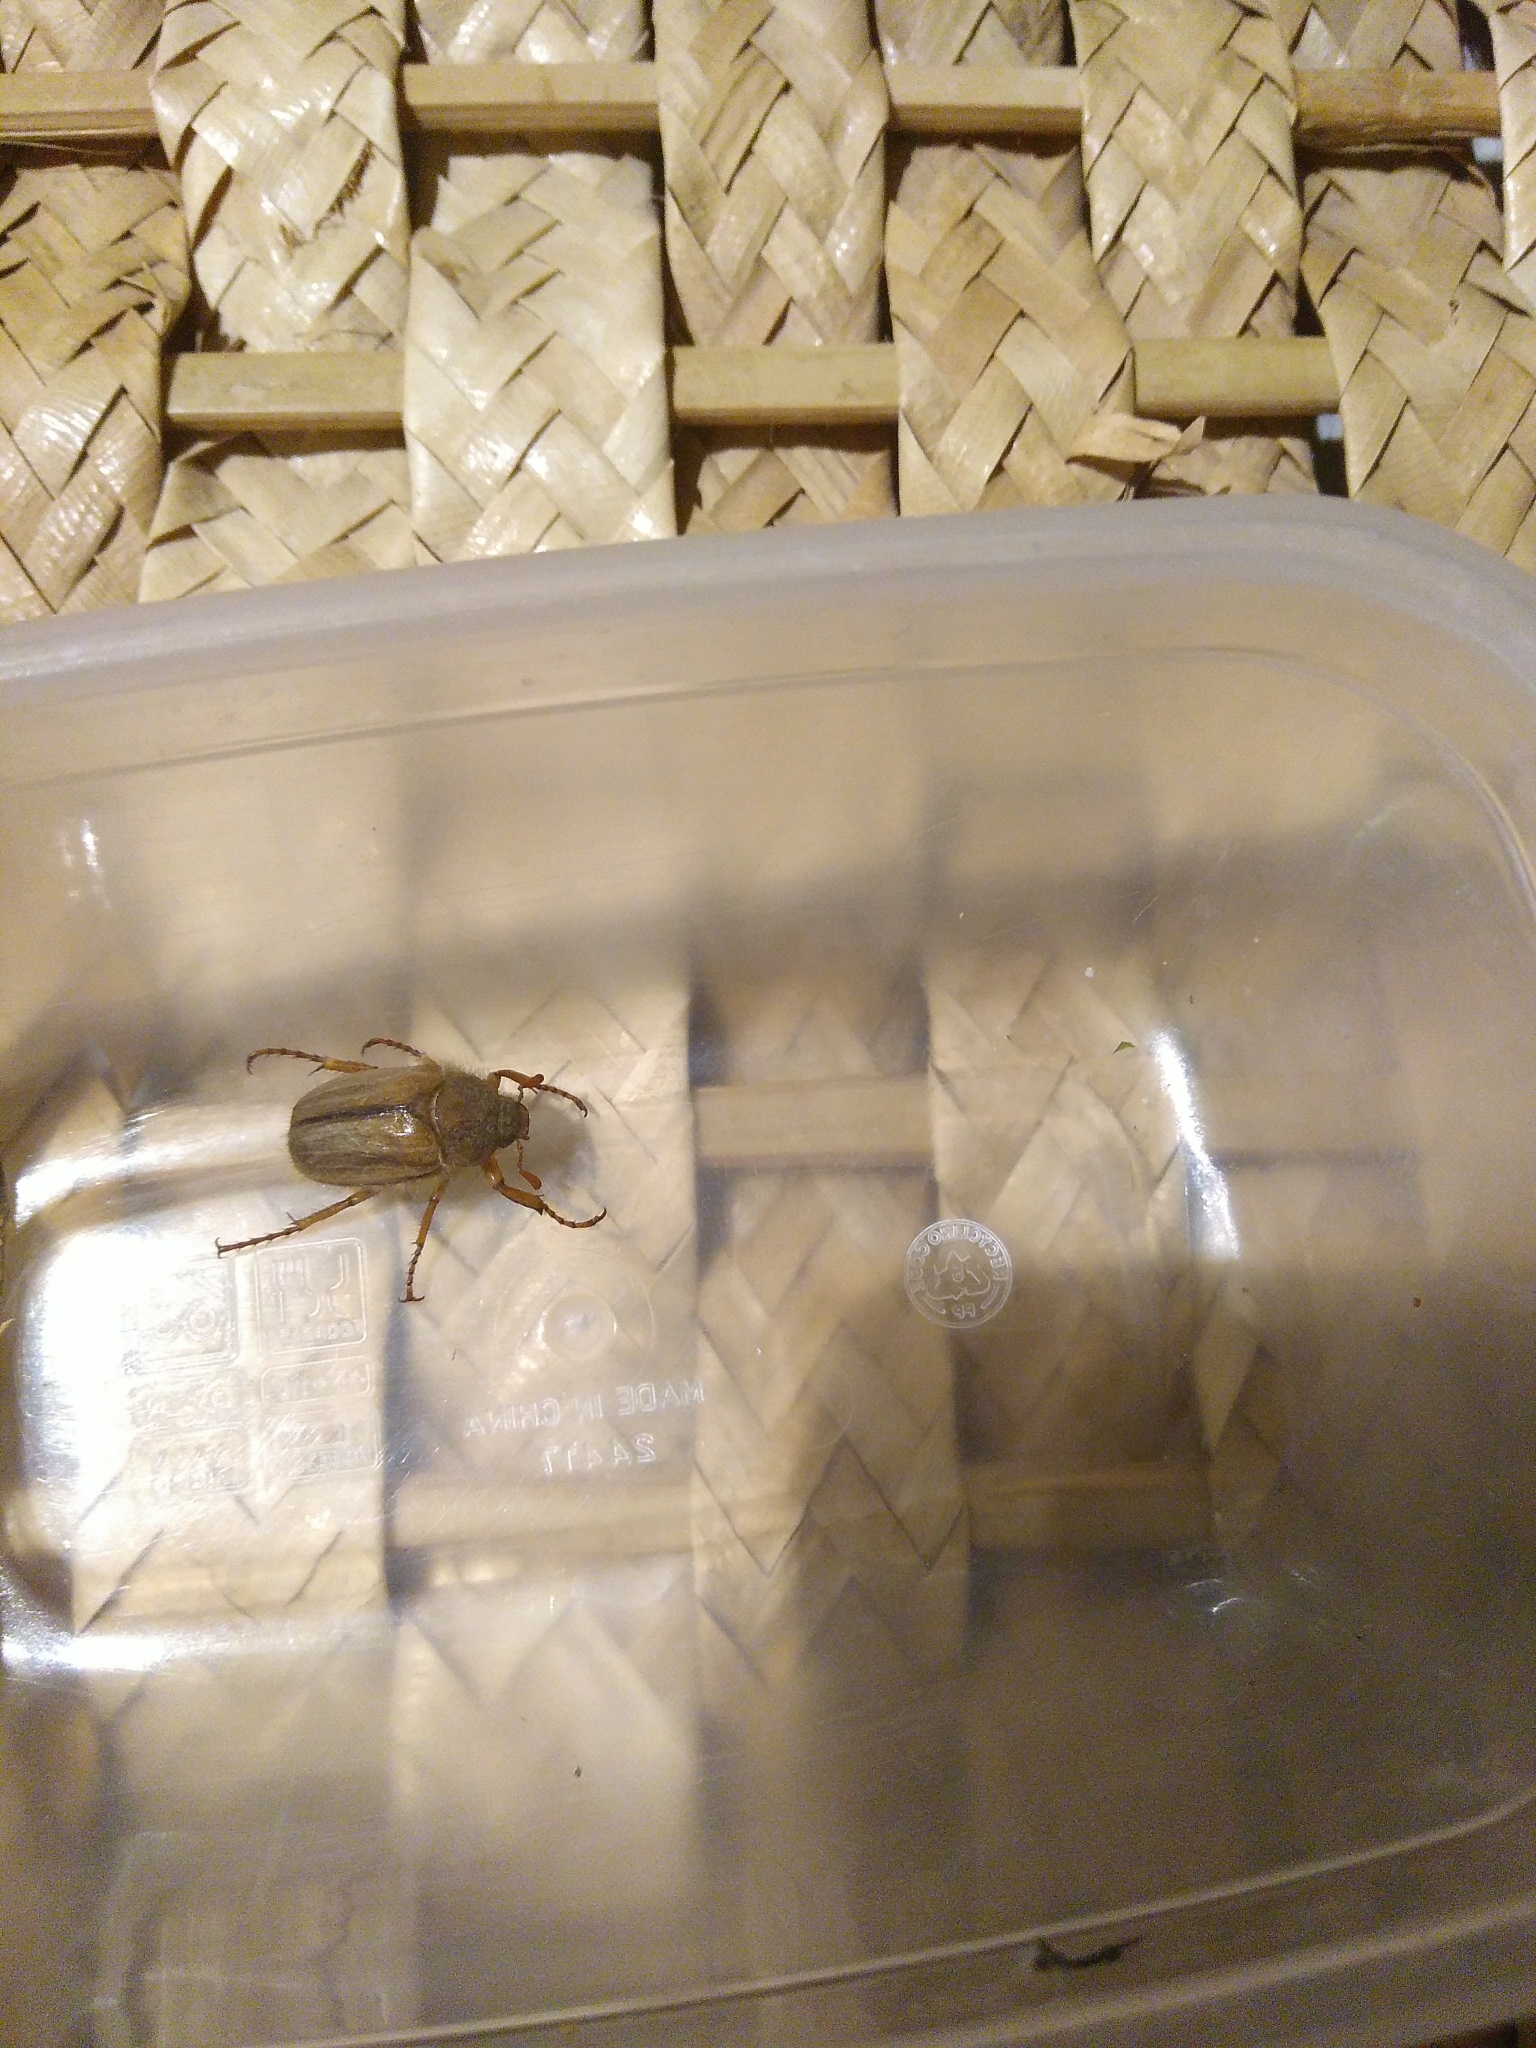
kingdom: Animalia
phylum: Arthropoda
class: Insecta
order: Coleoptera
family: Scarabaeidae
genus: Amphimallon
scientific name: Amphimallon solstitiale
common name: Summer chafer
